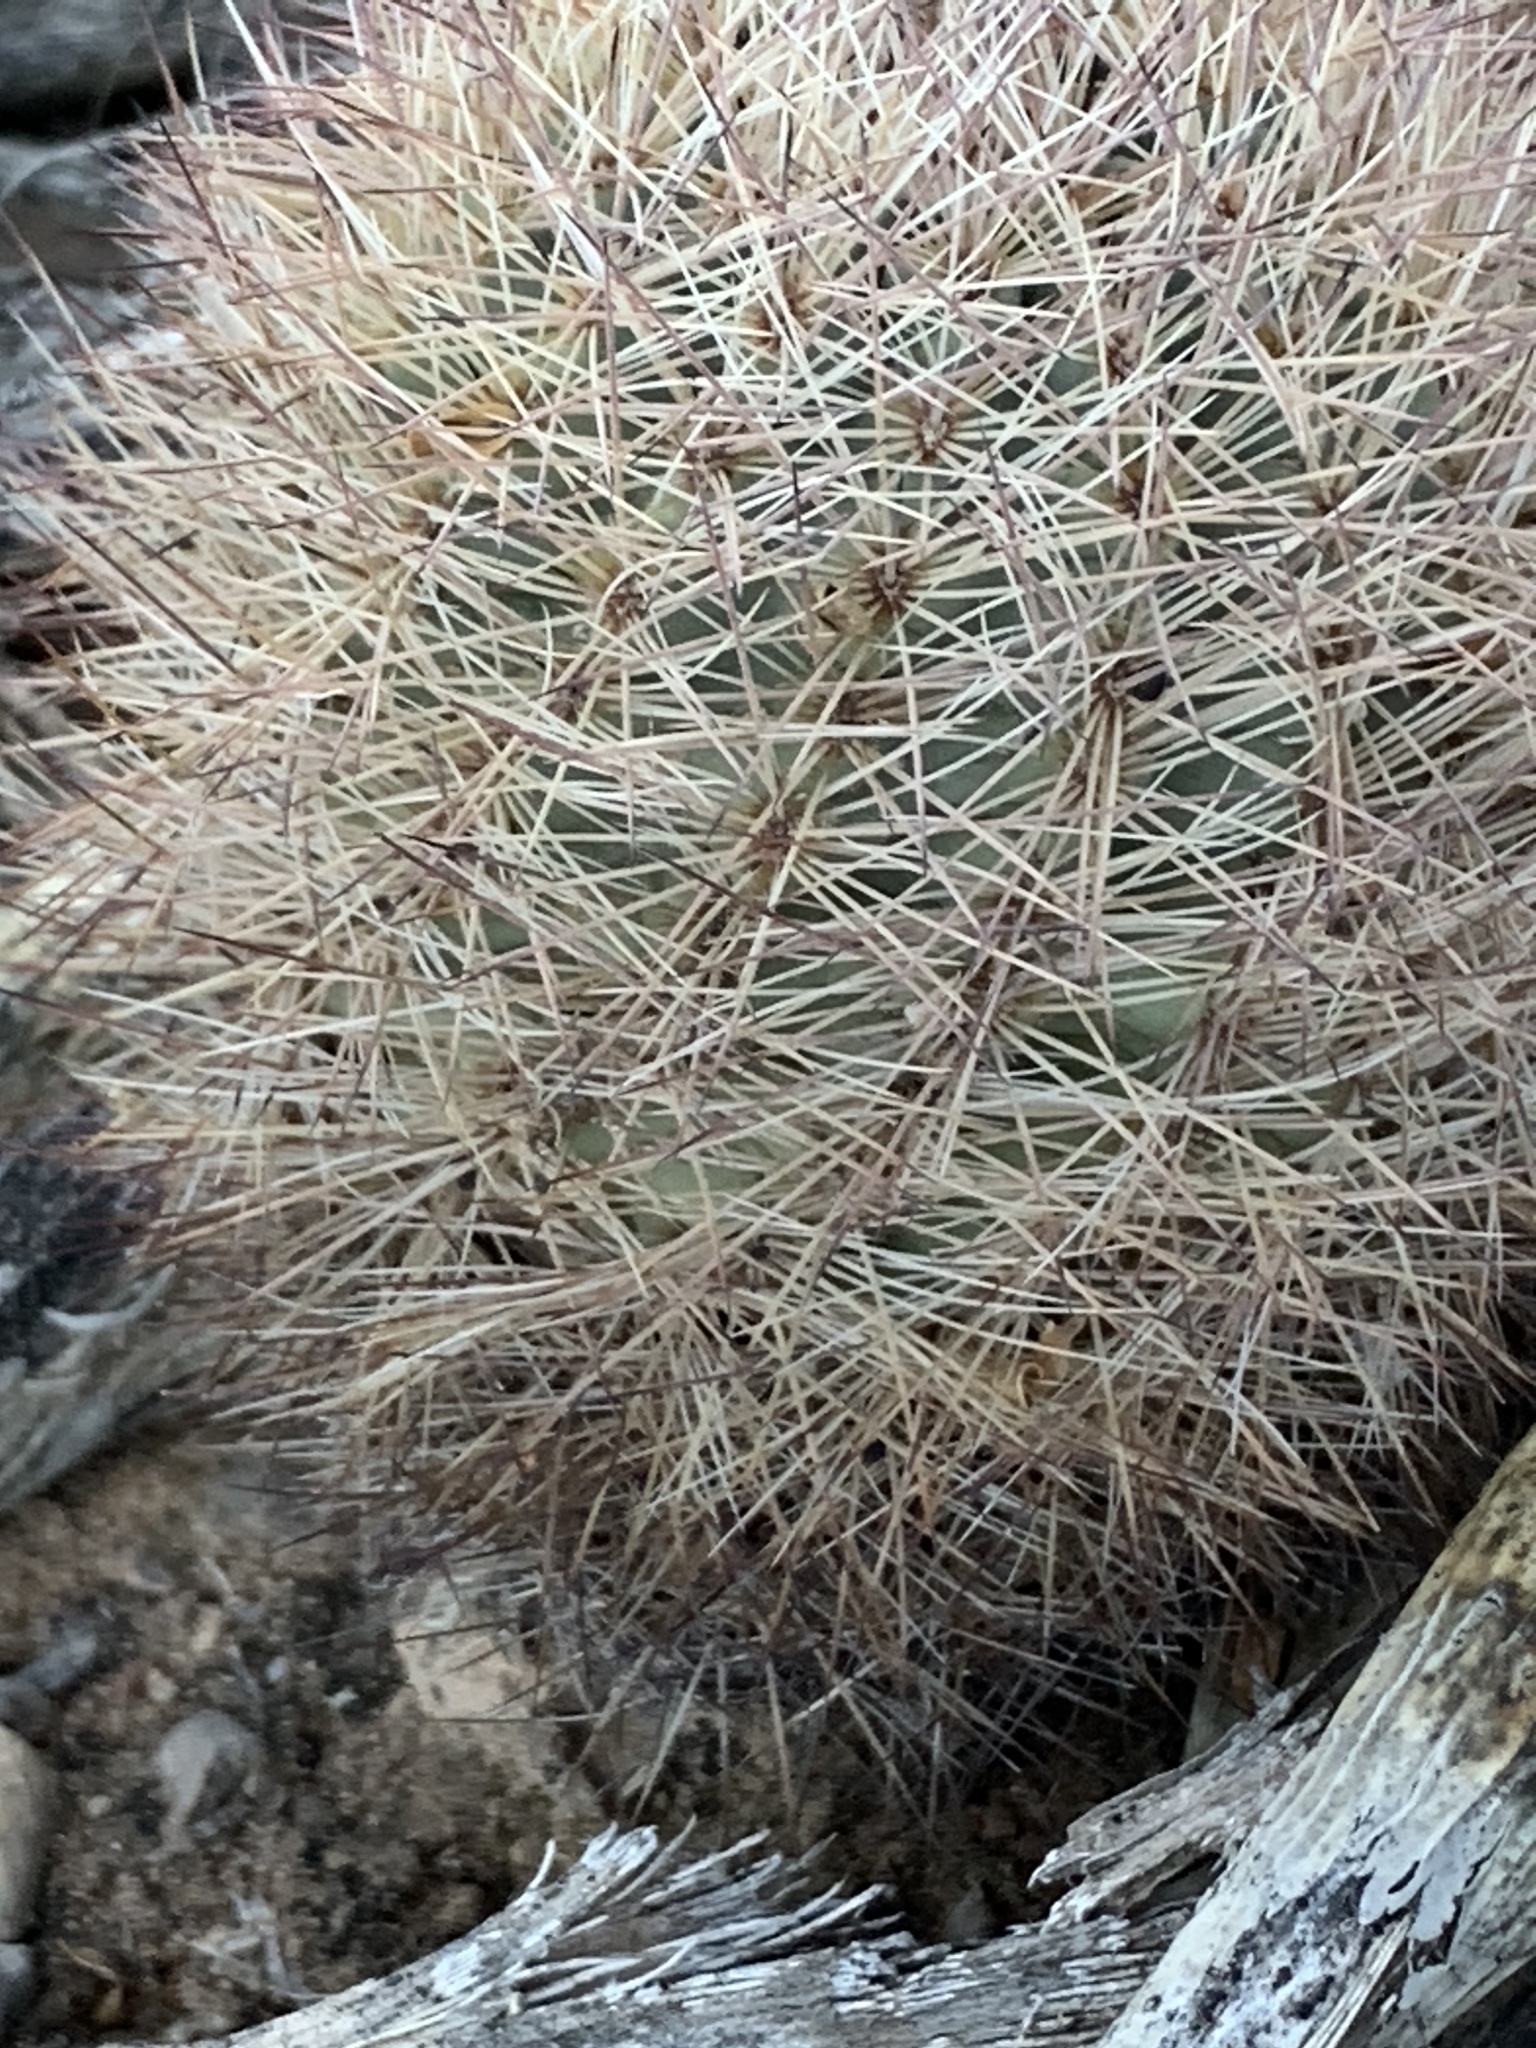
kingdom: Plantae
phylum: Tracheophyta
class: Magnoliopsida
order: Caryophyllales
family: Cactaceae
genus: Sclerocactus
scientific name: Sclerocactus intertextus
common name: White fish-hook cactus
